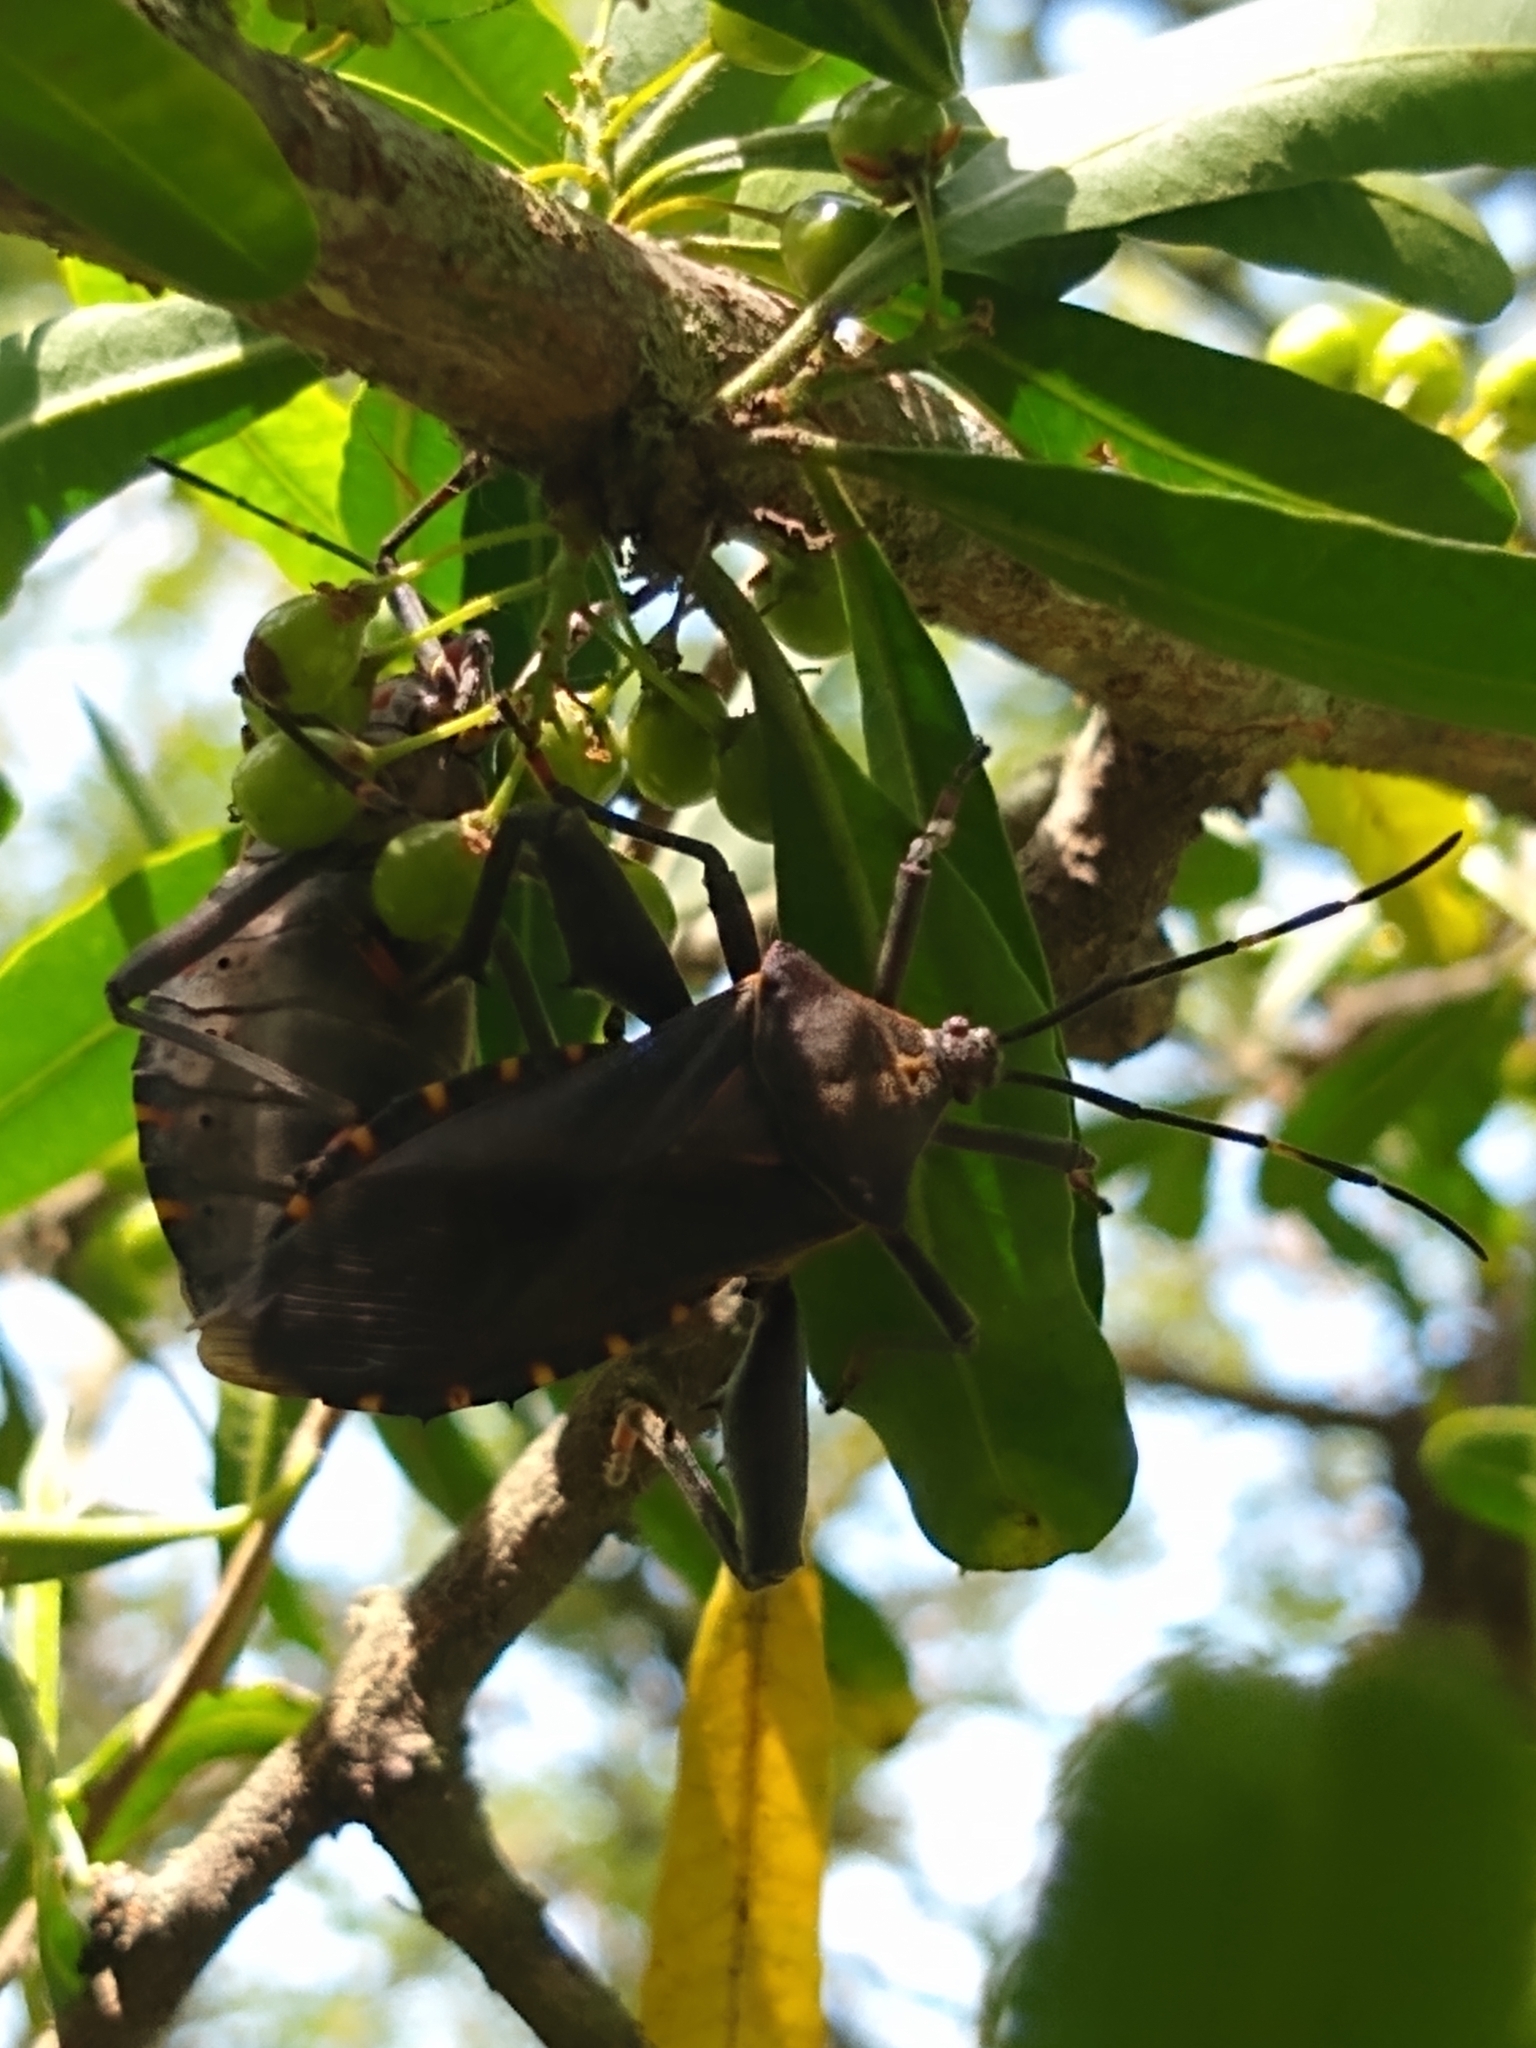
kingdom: Animalia
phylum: Arthropoda
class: Insecta
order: Hemiptera
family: Coreidae
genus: Pachylis
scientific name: Pachylis argentinus
